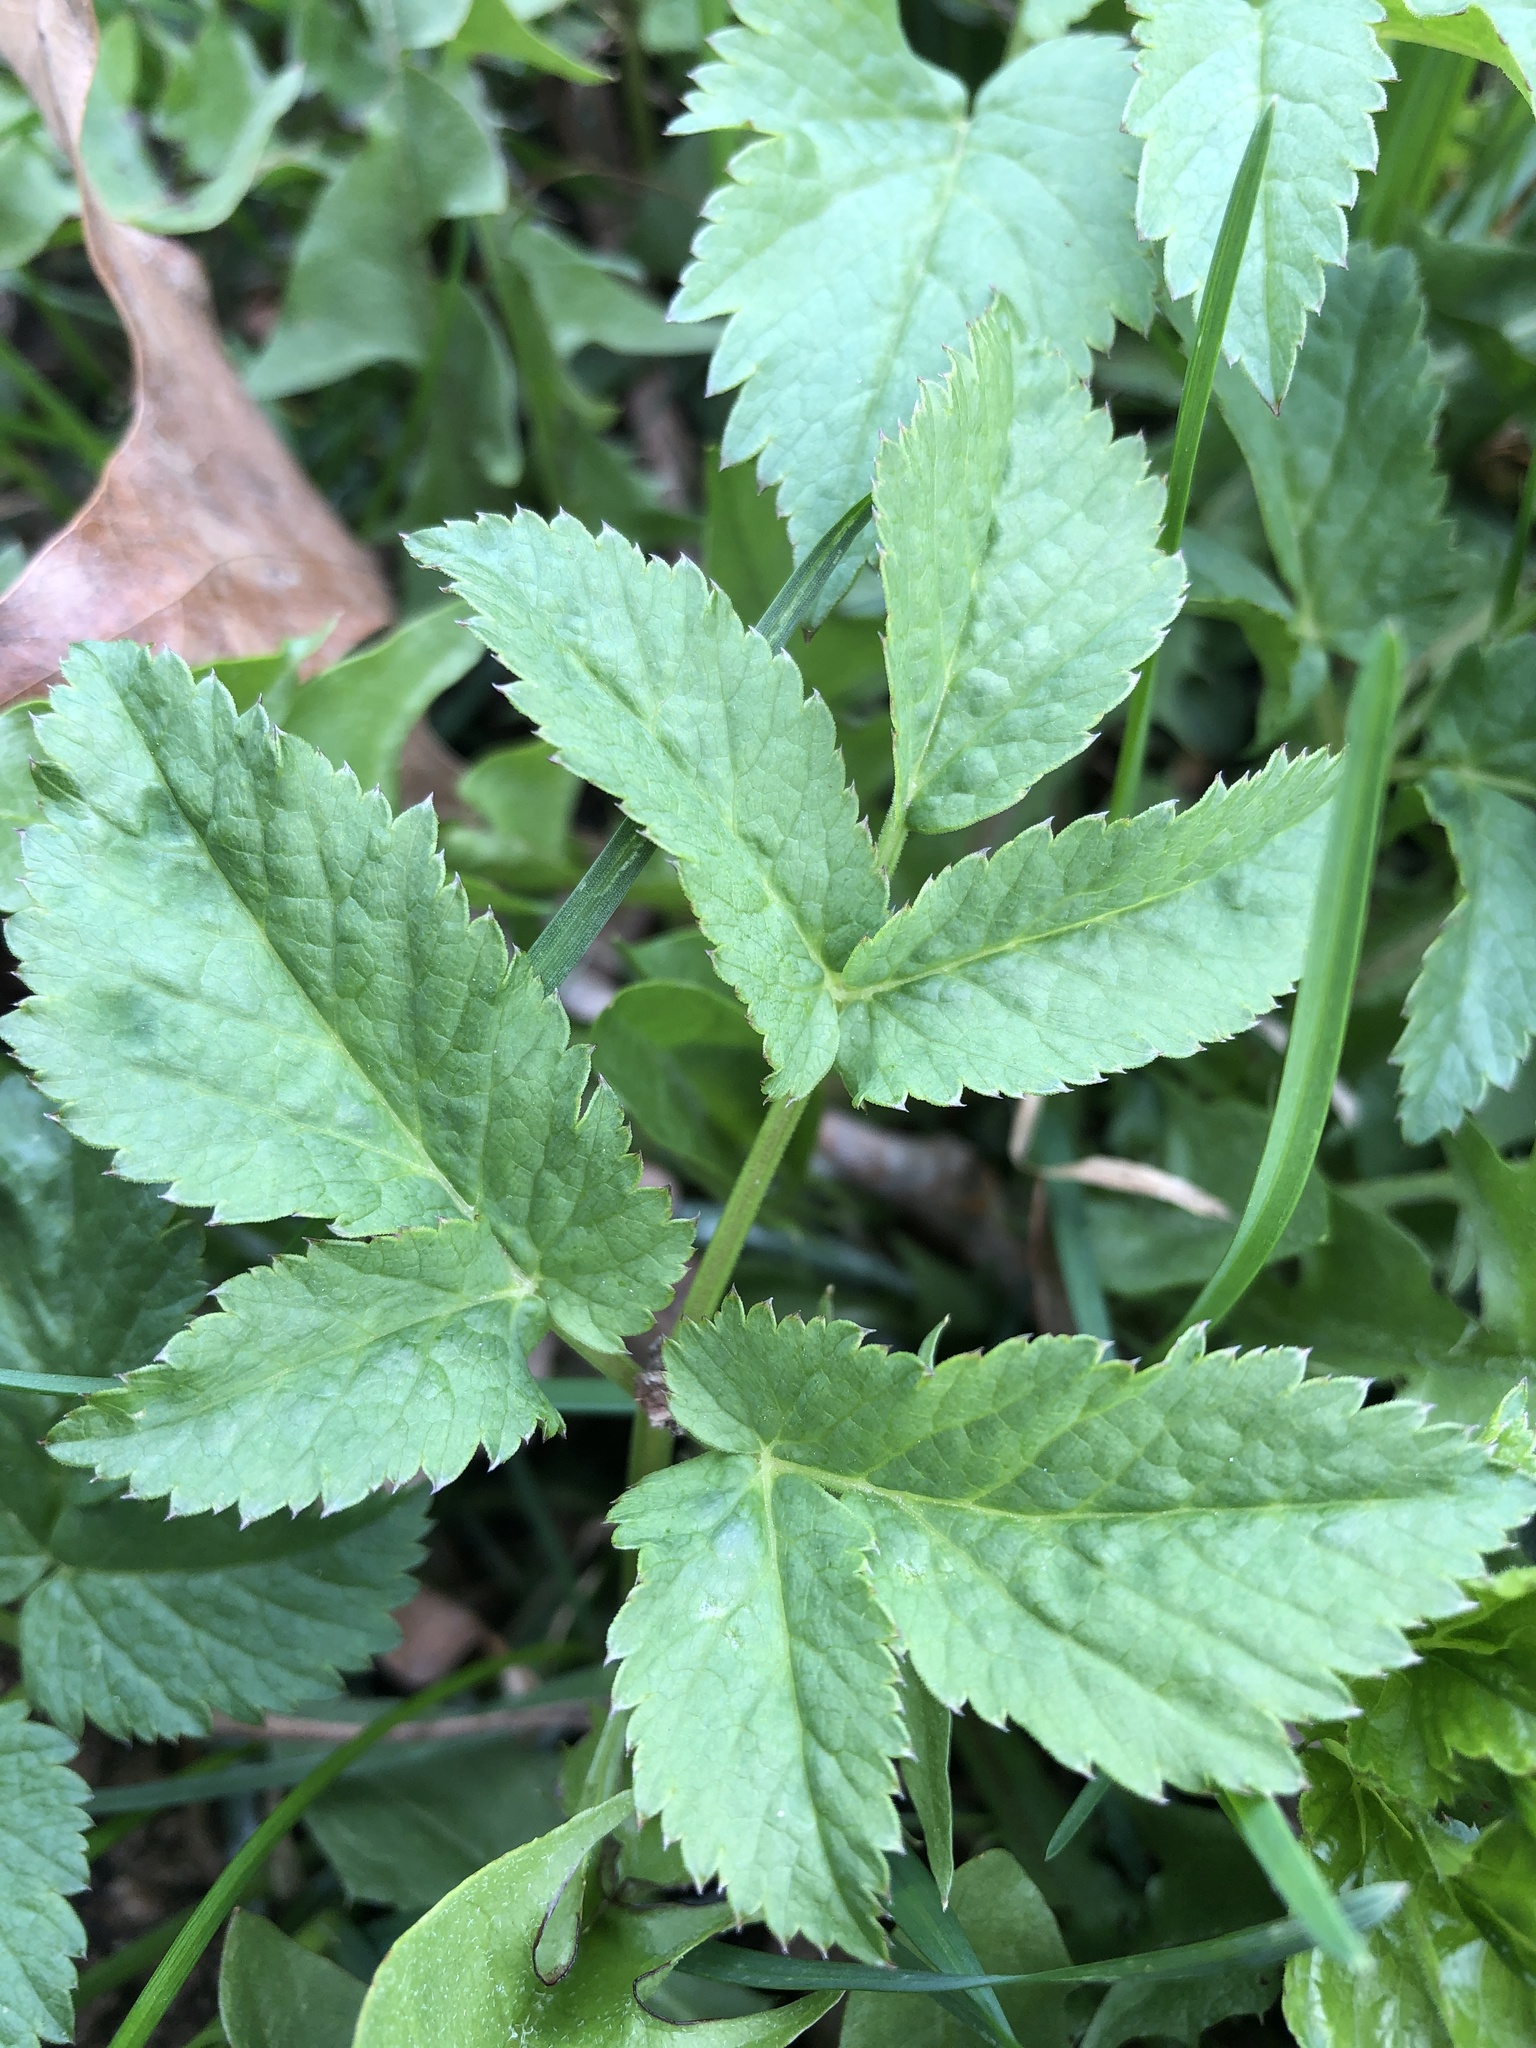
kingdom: Plantae
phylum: Tracheophyta
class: Magnoliopsida
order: Apiales
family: Apiaceae
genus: Aegopodium
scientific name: Aegopodium podagraria
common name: Ground-elder
